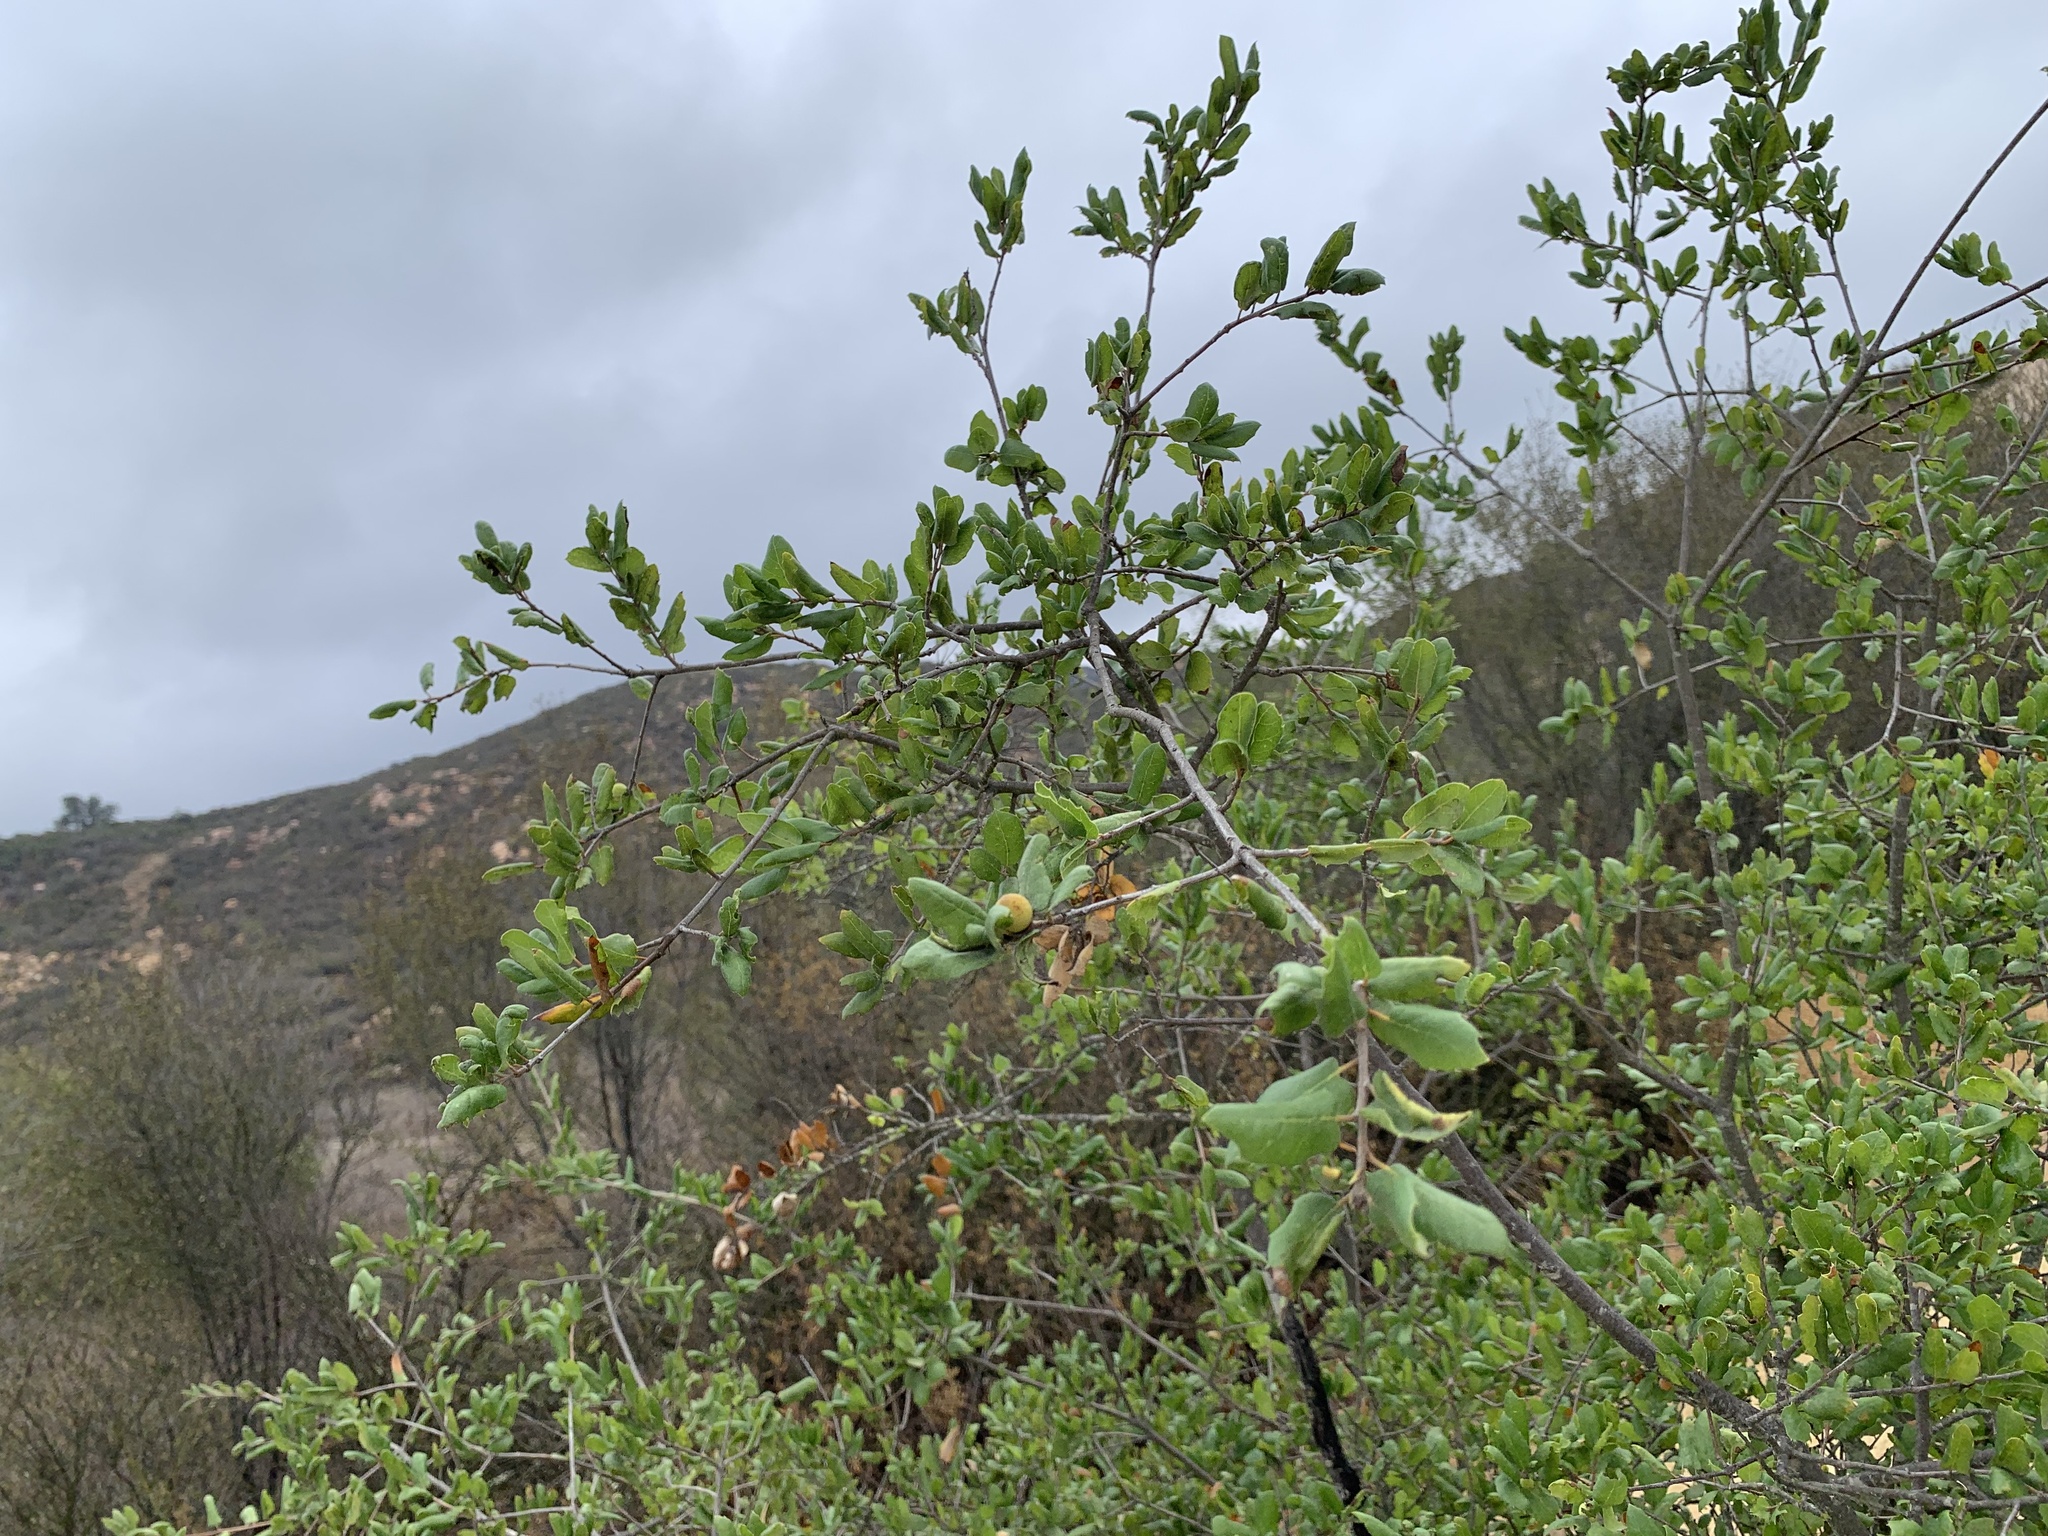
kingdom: Animalia
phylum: Arthropoda
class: Insecta
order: Hymenoptera
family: Cynipidae
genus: Callirhytis
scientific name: Callirhytis
